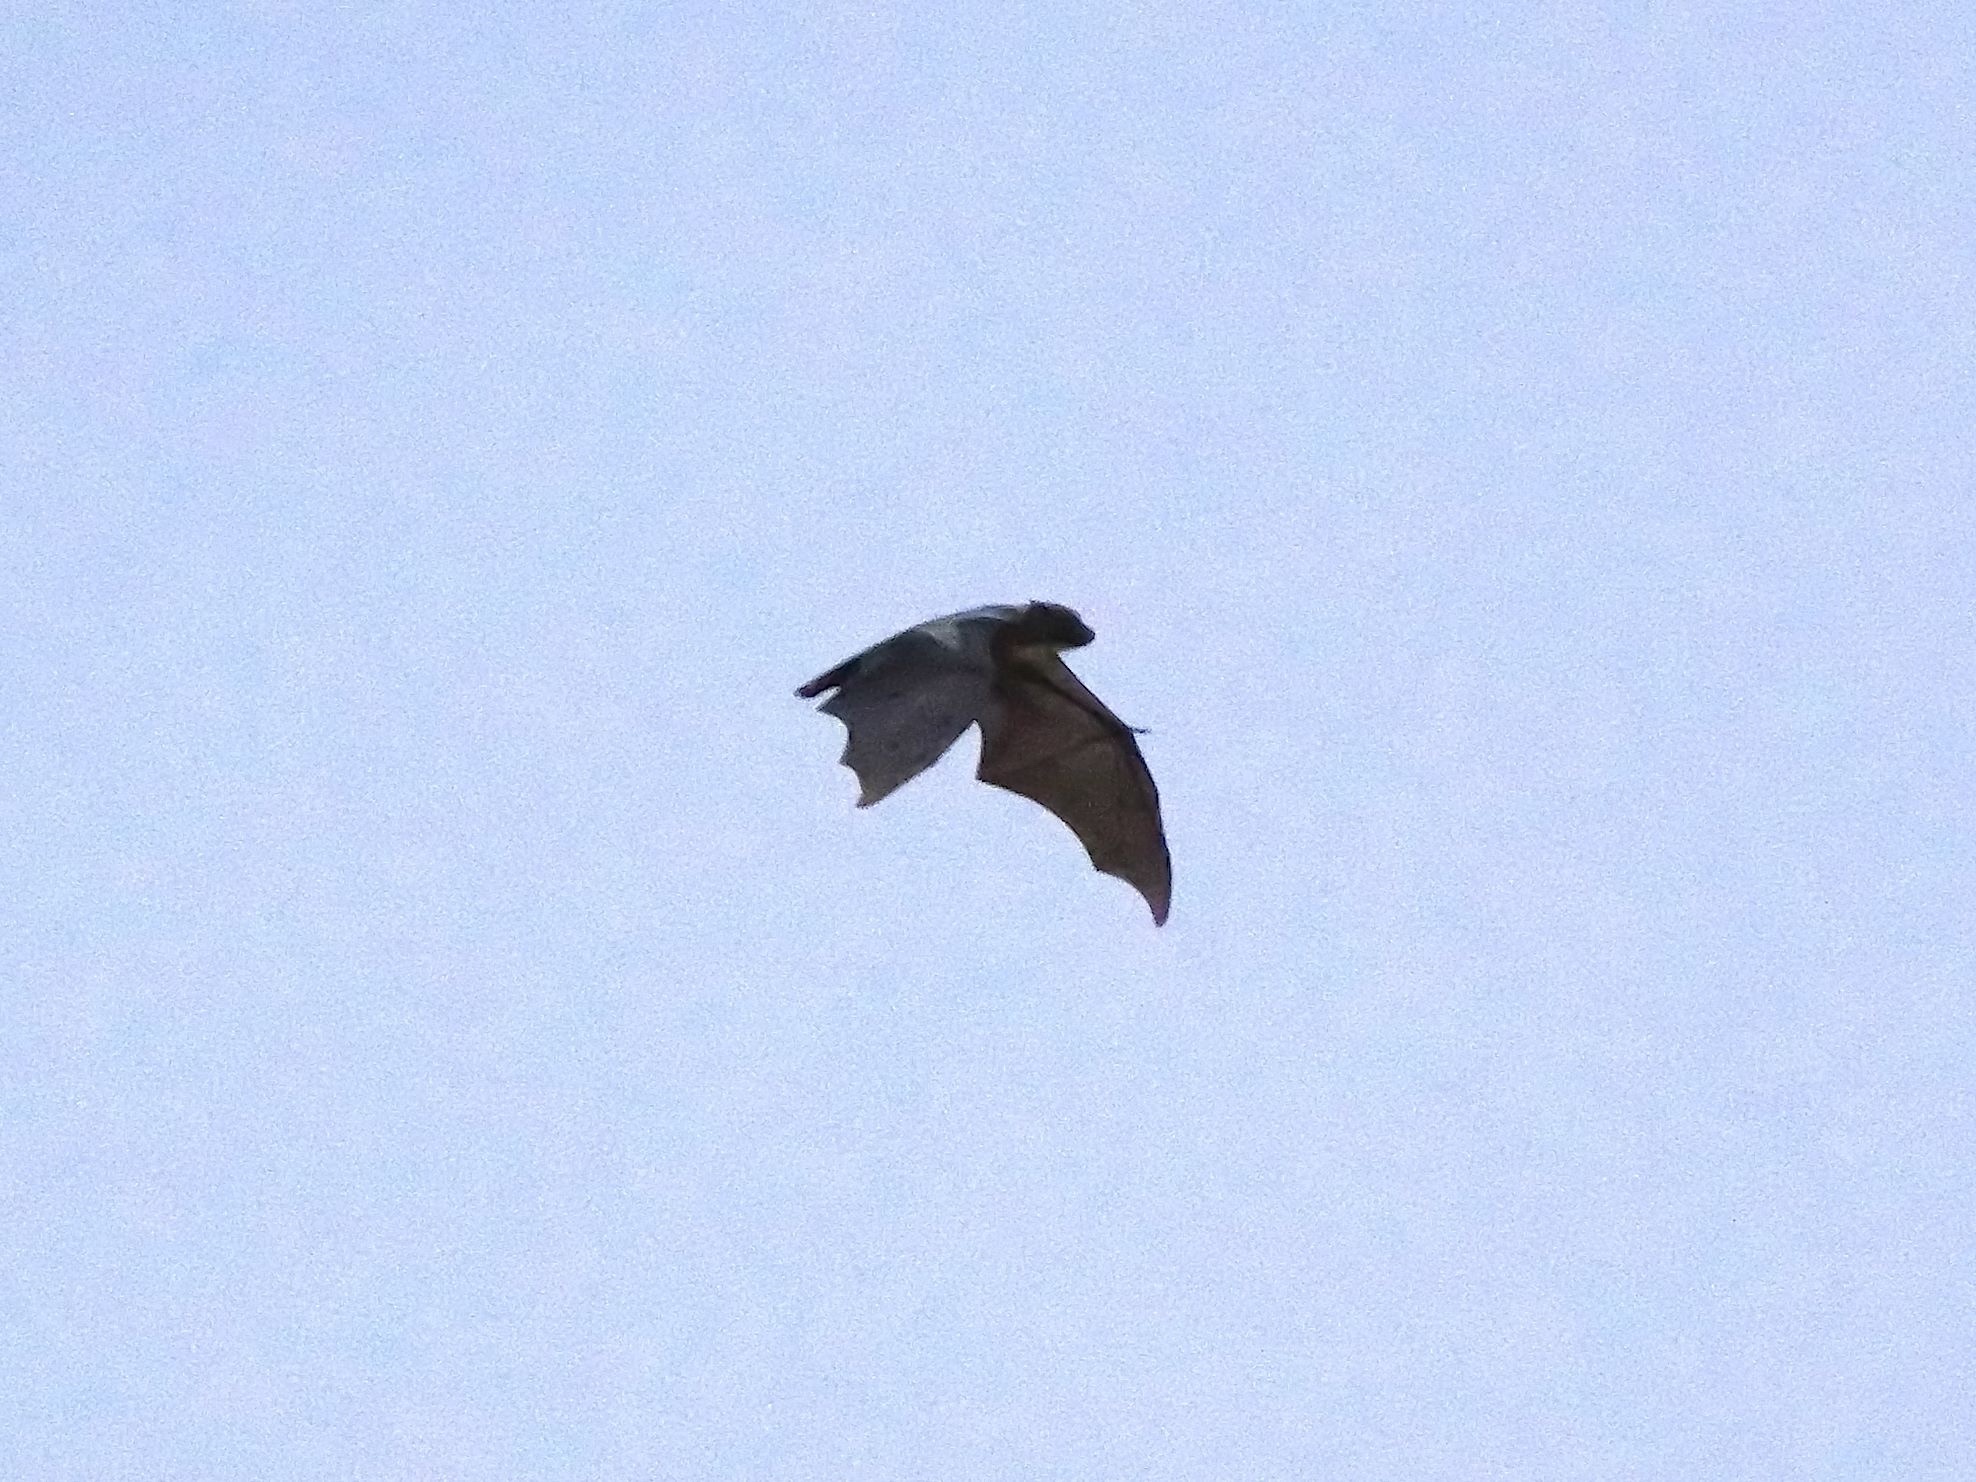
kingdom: Animalia
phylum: Chordata
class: Mammalia
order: Chiroptera
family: Pteropodidae
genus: Eidolon
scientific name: Eidolon helvum
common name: Straw-colored fruit bat
